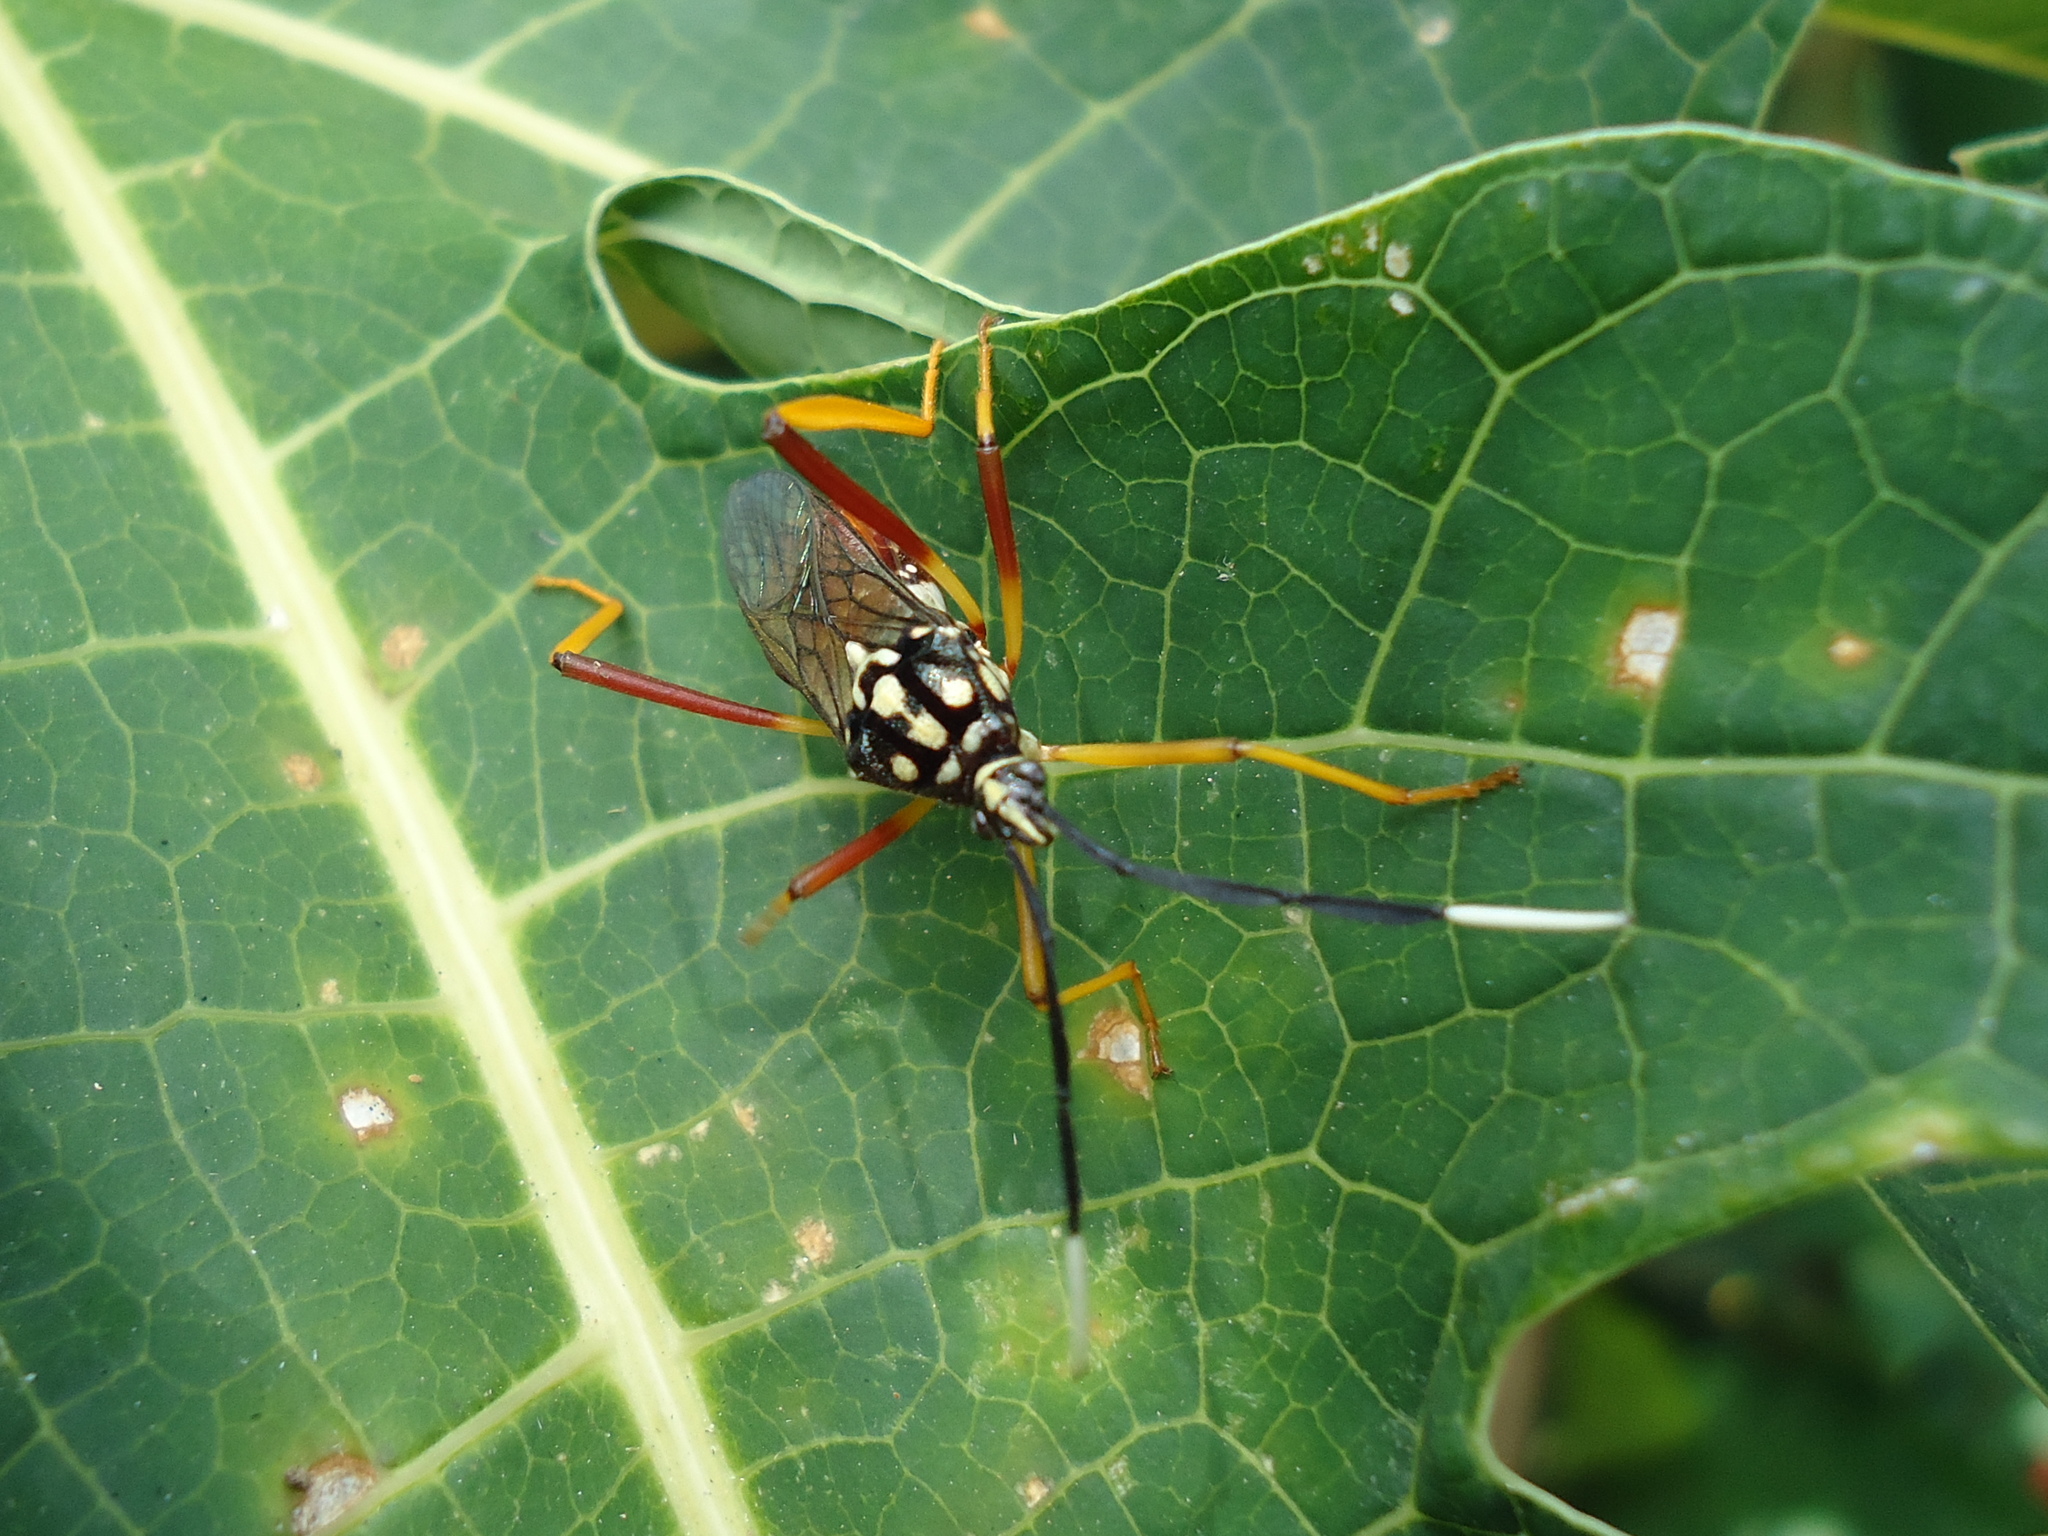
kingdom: Animalia
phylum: Arthropoda
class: Insecta
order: Hemiptera
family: Coreidae
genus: Holhymenia
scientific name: Holhymenia histrio
